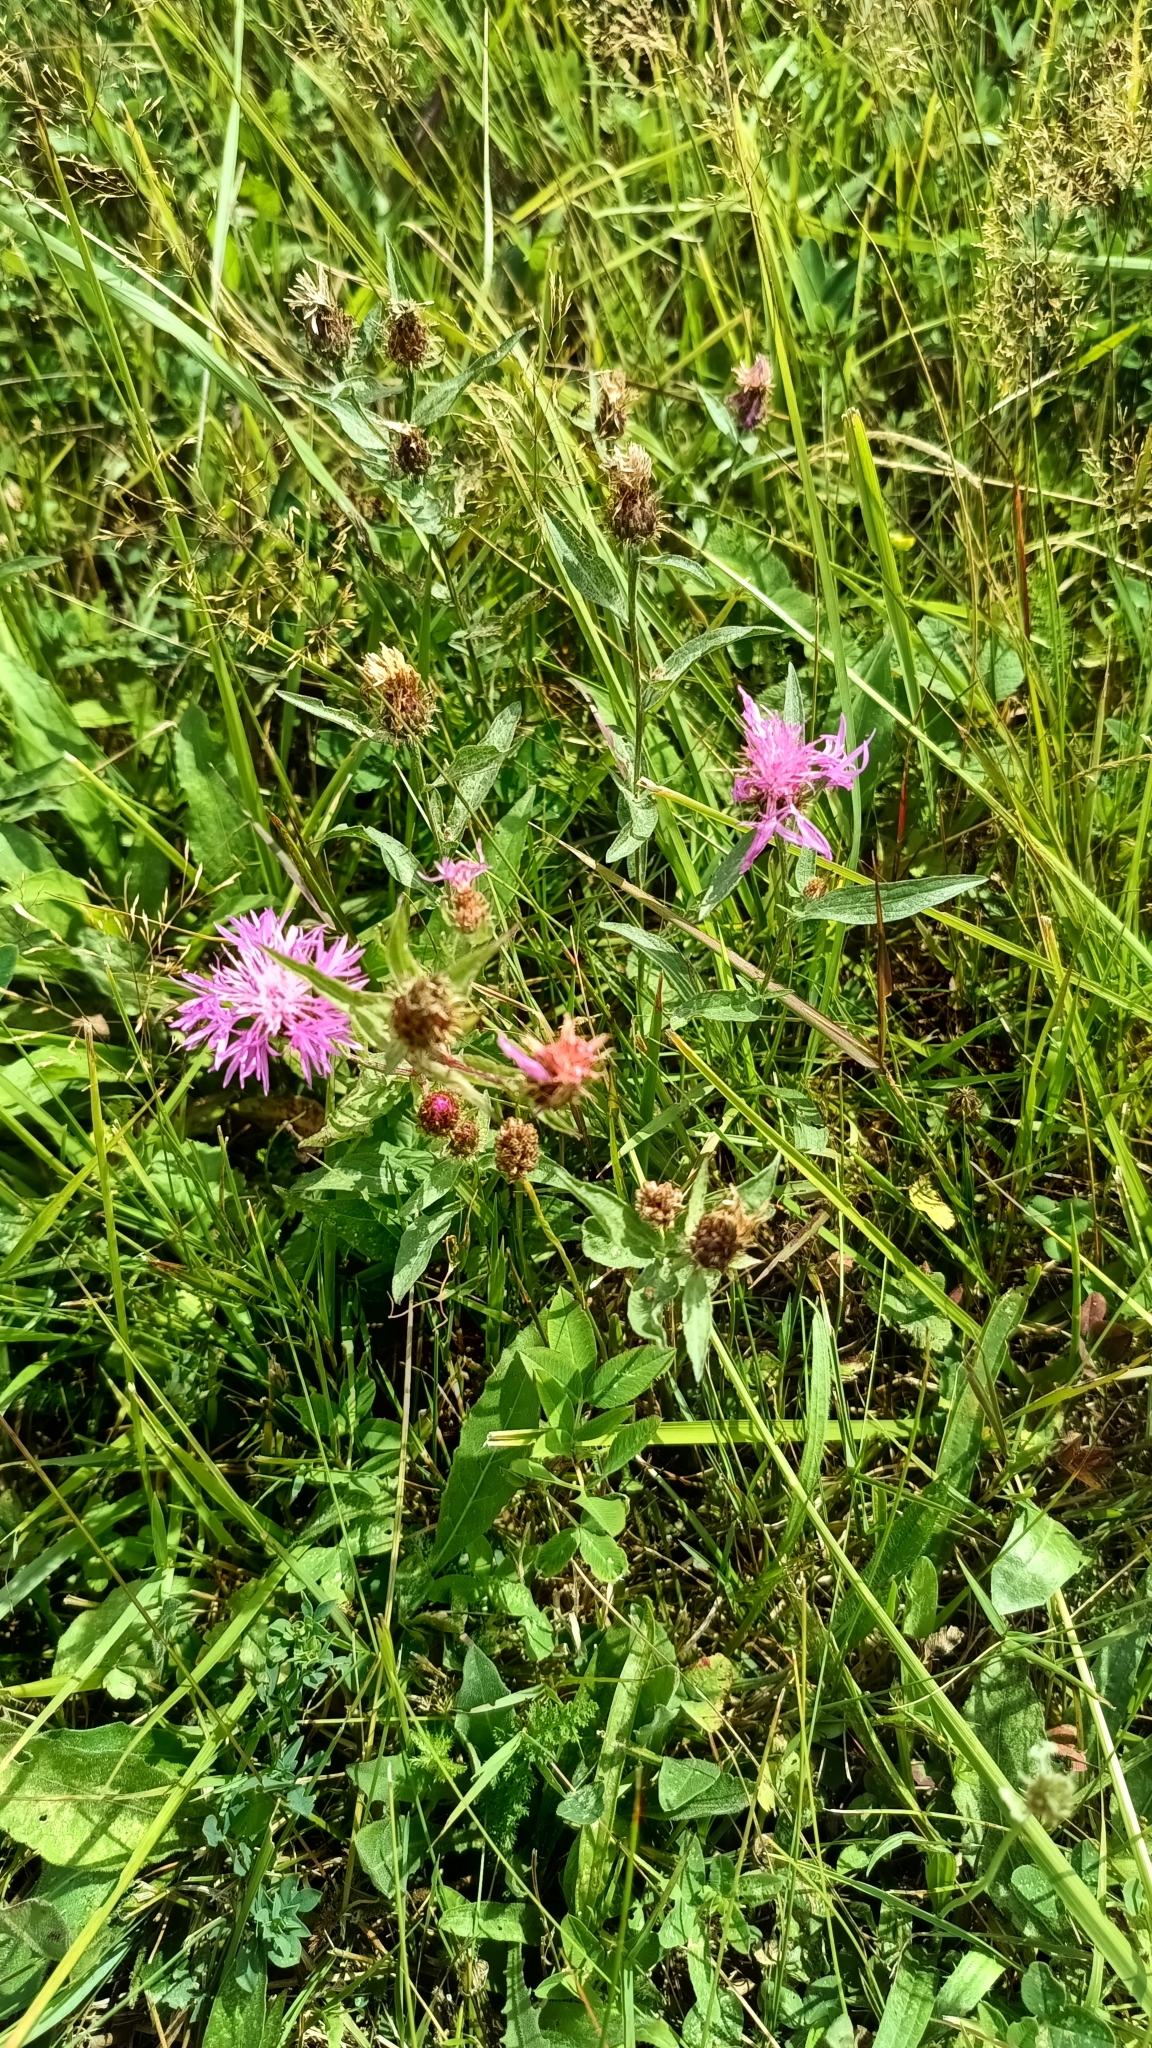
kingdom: Plantae
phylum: Tracheophyta
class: Magnoliopsida
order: Asterales
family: Asteraceae
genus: Centaurea
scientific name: Centaurea oxylepis
